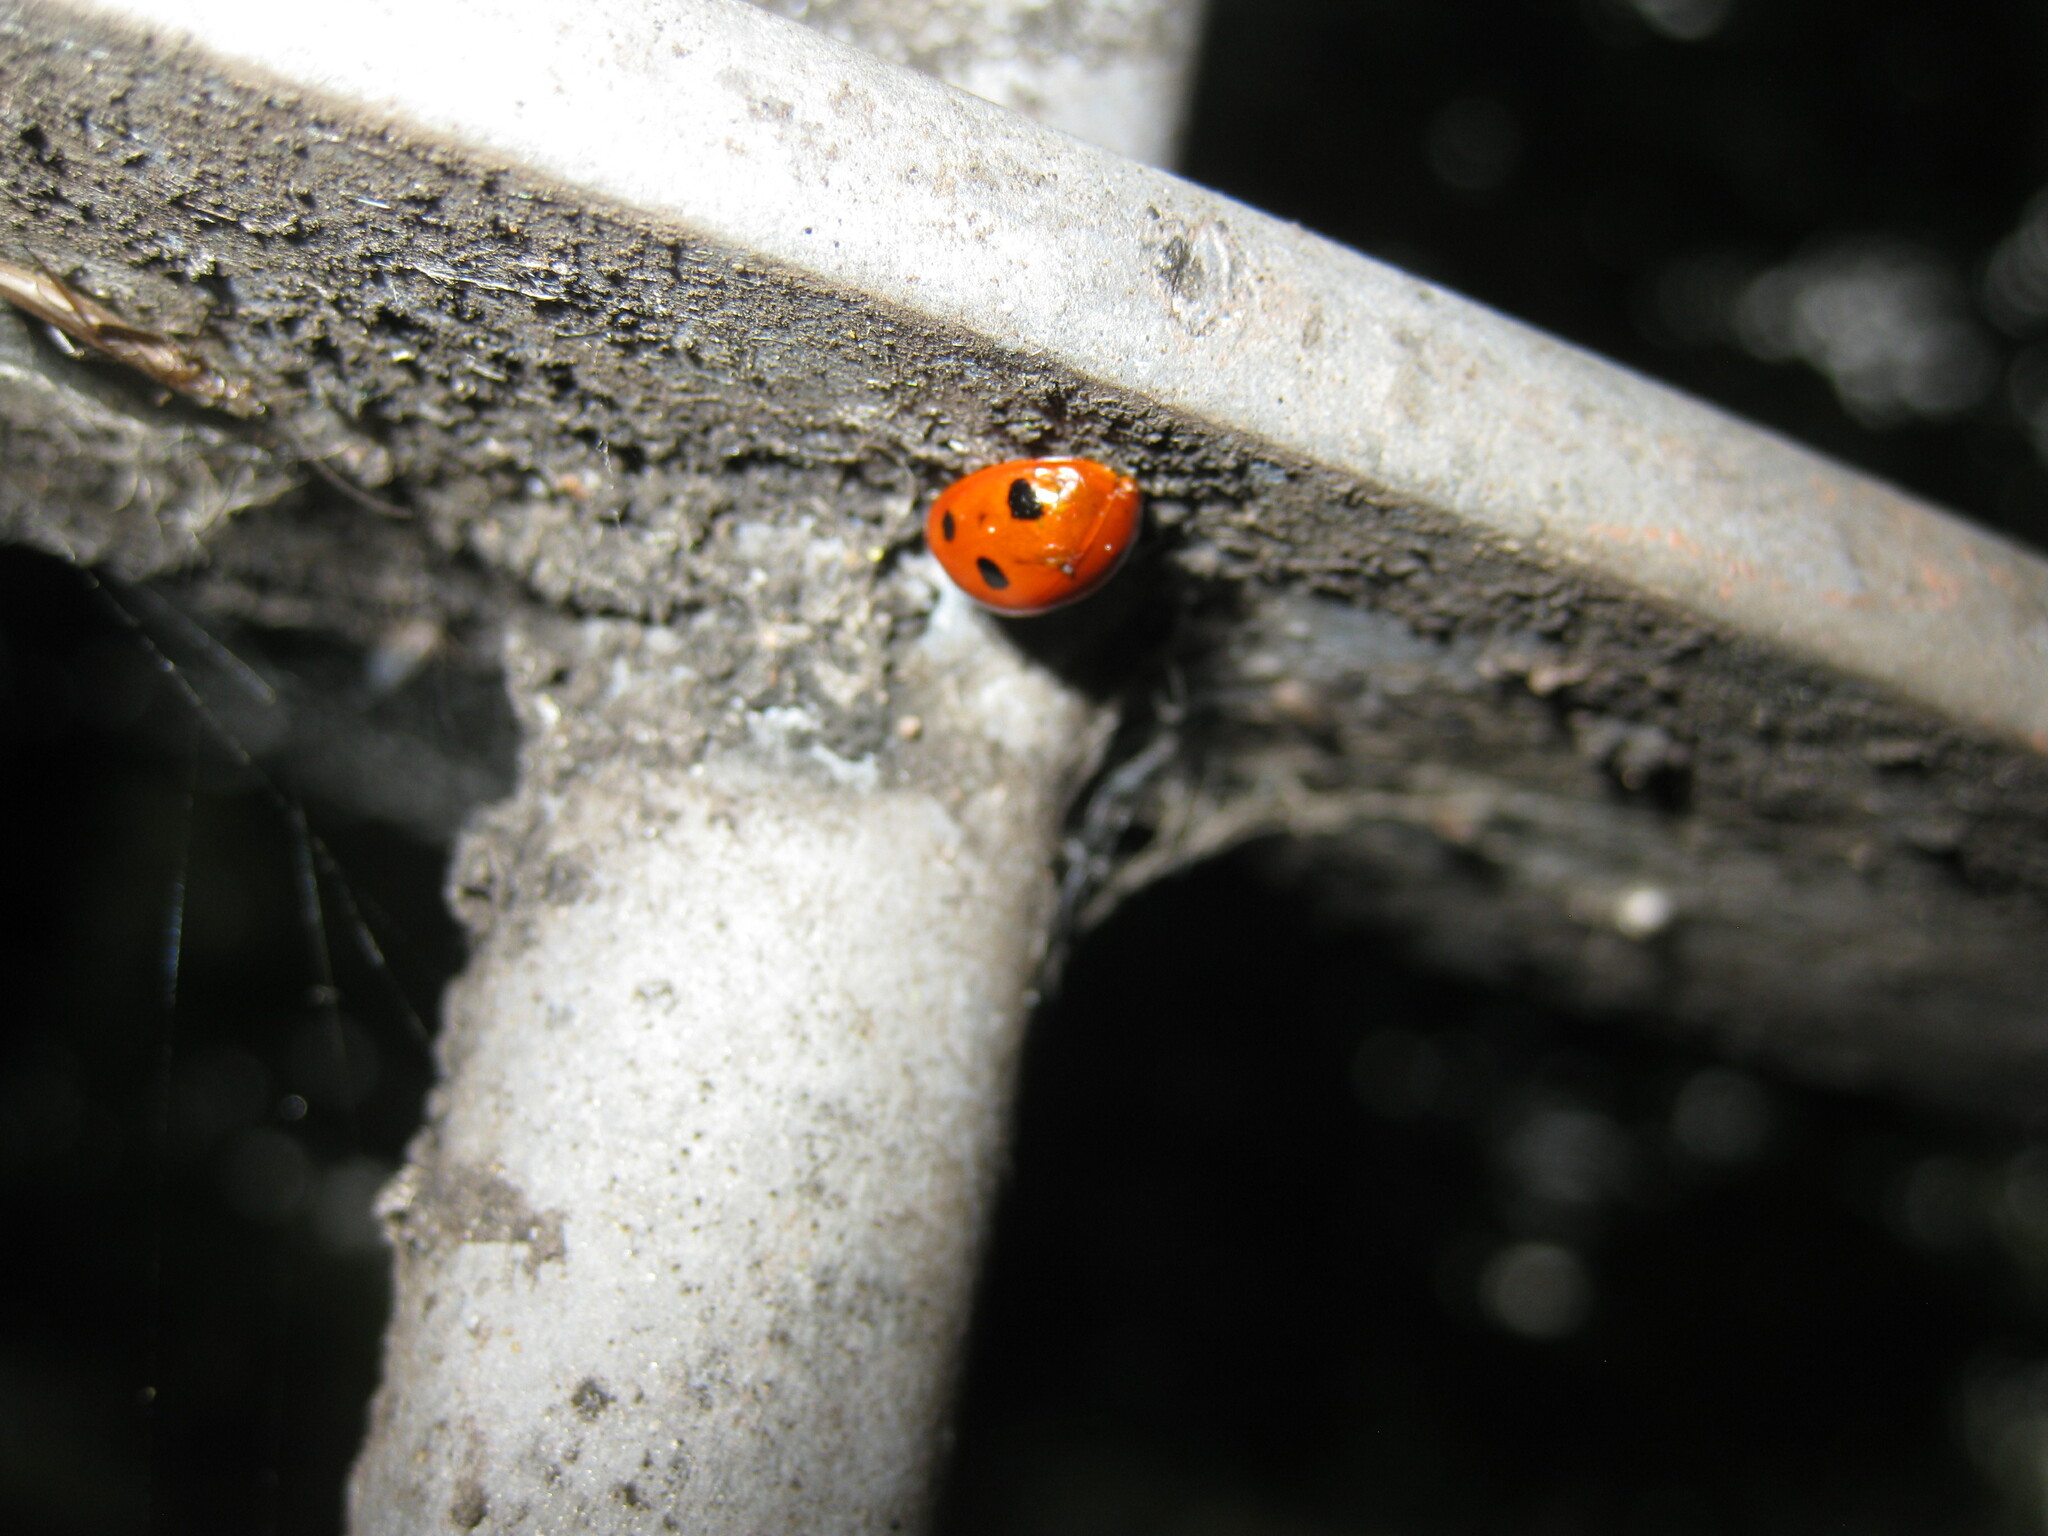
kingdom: Animalia
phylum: Arthropoda
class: Insecta
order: Coleoptera
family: Coccinellidae
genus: Coccinella
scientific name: Coccinella septempunctata
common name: Sevenspotted lady beetle
